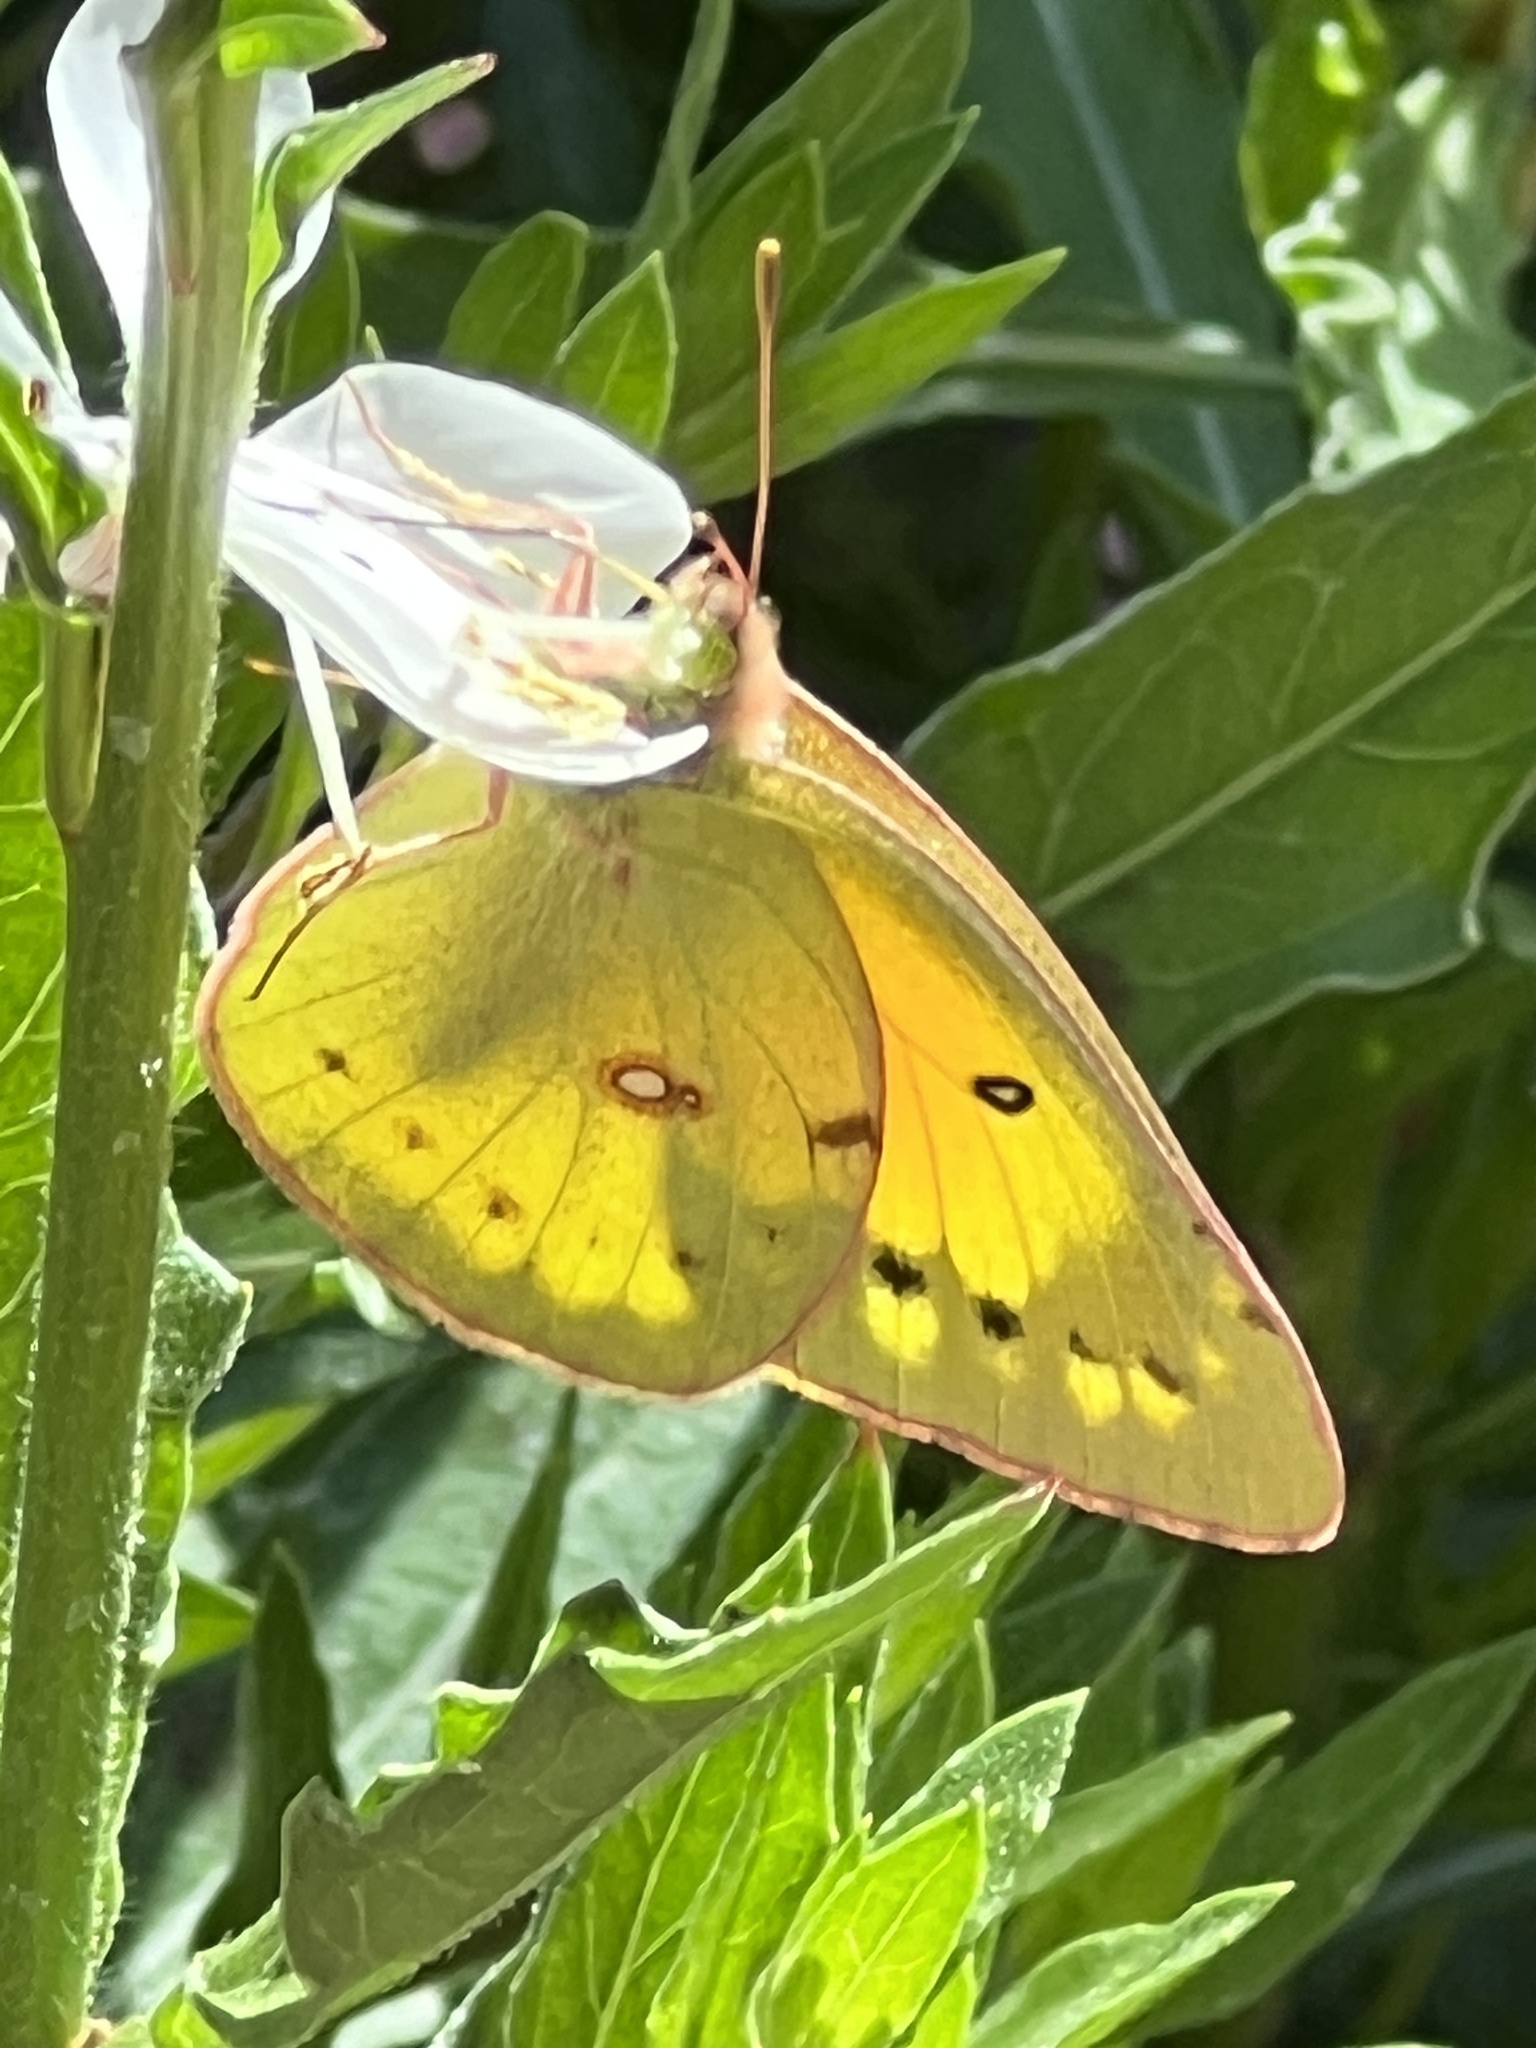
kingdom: Animalia
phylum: Arthropoda
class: Insecta
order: Lepidoptera
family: Pieridae
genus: Colias
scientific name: Colias eurytheme
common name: Alfalfa butterfly
